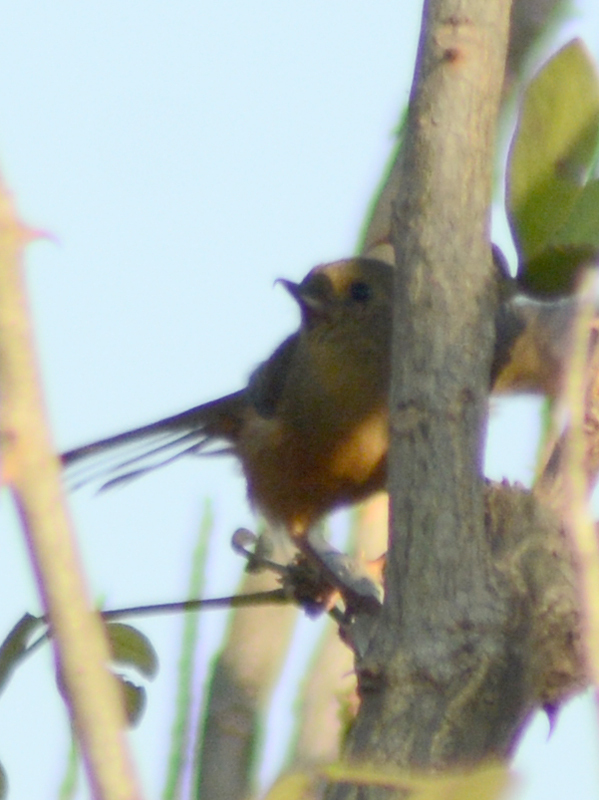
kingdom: Animalia
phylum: Chordata
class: Aves
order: Passeriformes
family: Thraupidae
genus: Diglossa
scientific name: Diglossa baritula
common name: Cinnamon-bellied flowerpiercer
